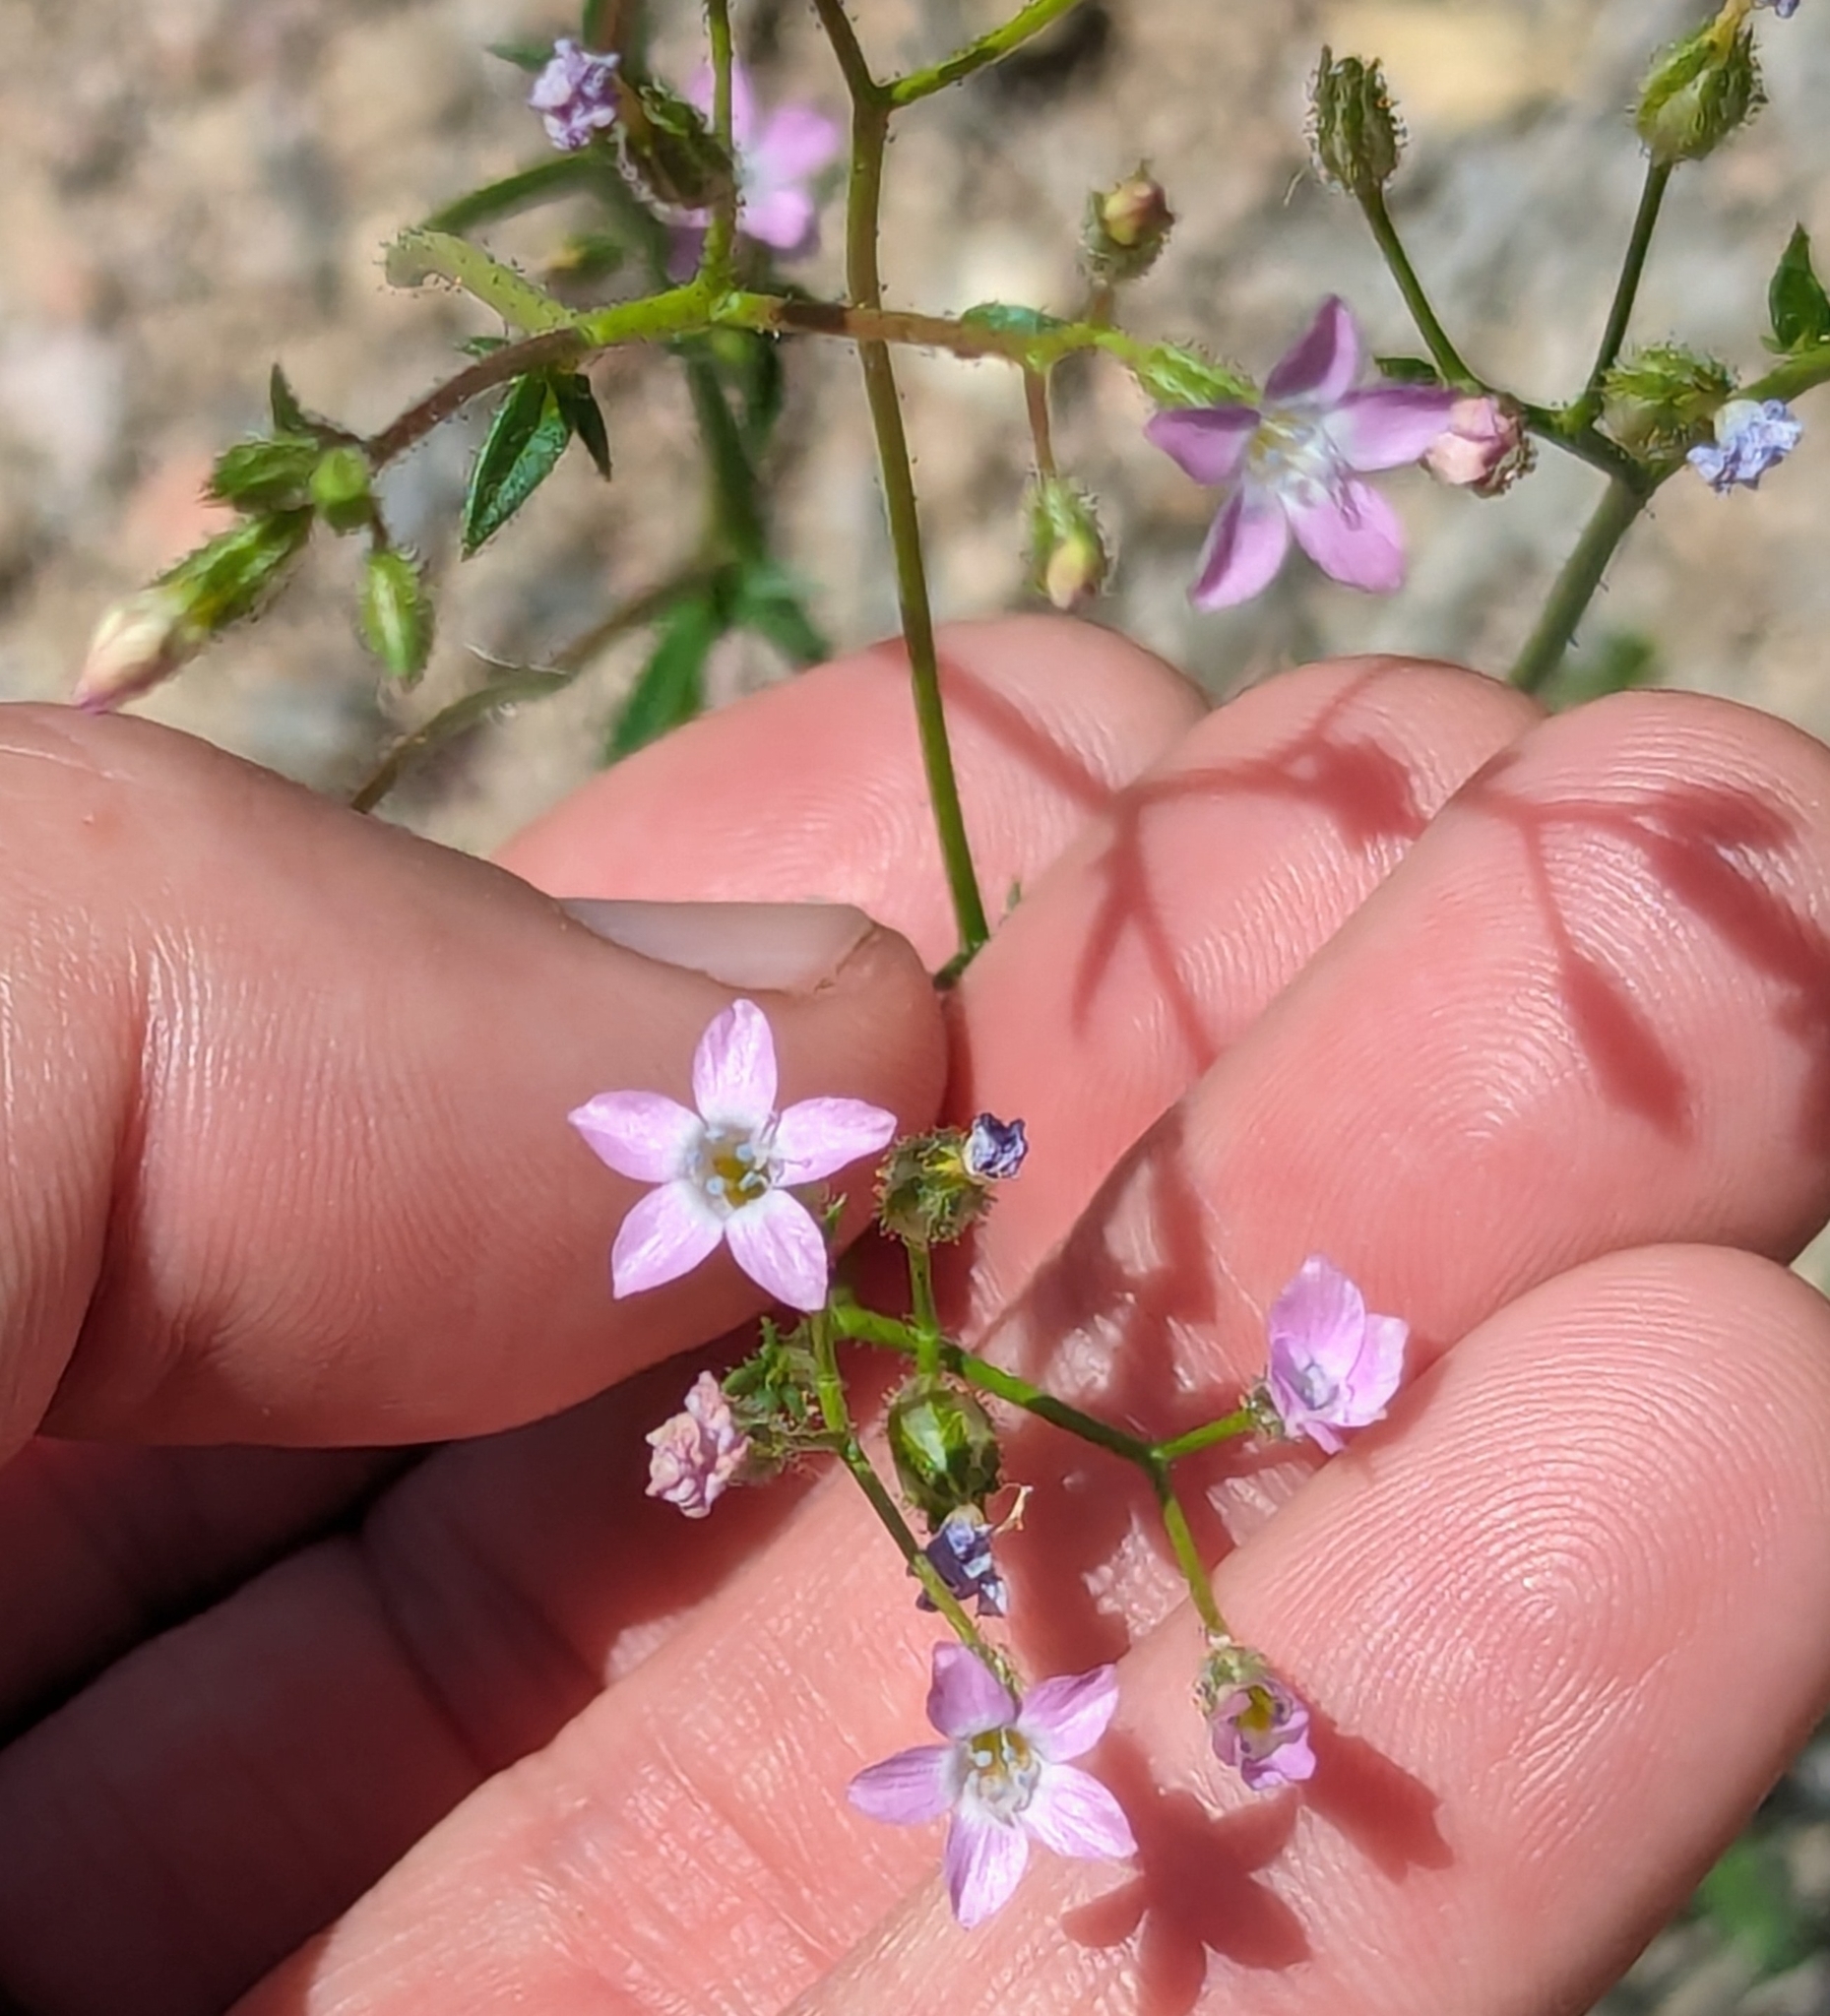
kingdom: Plantae
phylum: Tracheophyta
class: Magnoliopsida
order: Ericales
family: Polemoniaceae
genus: Gilia
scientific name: Gilia stellata
